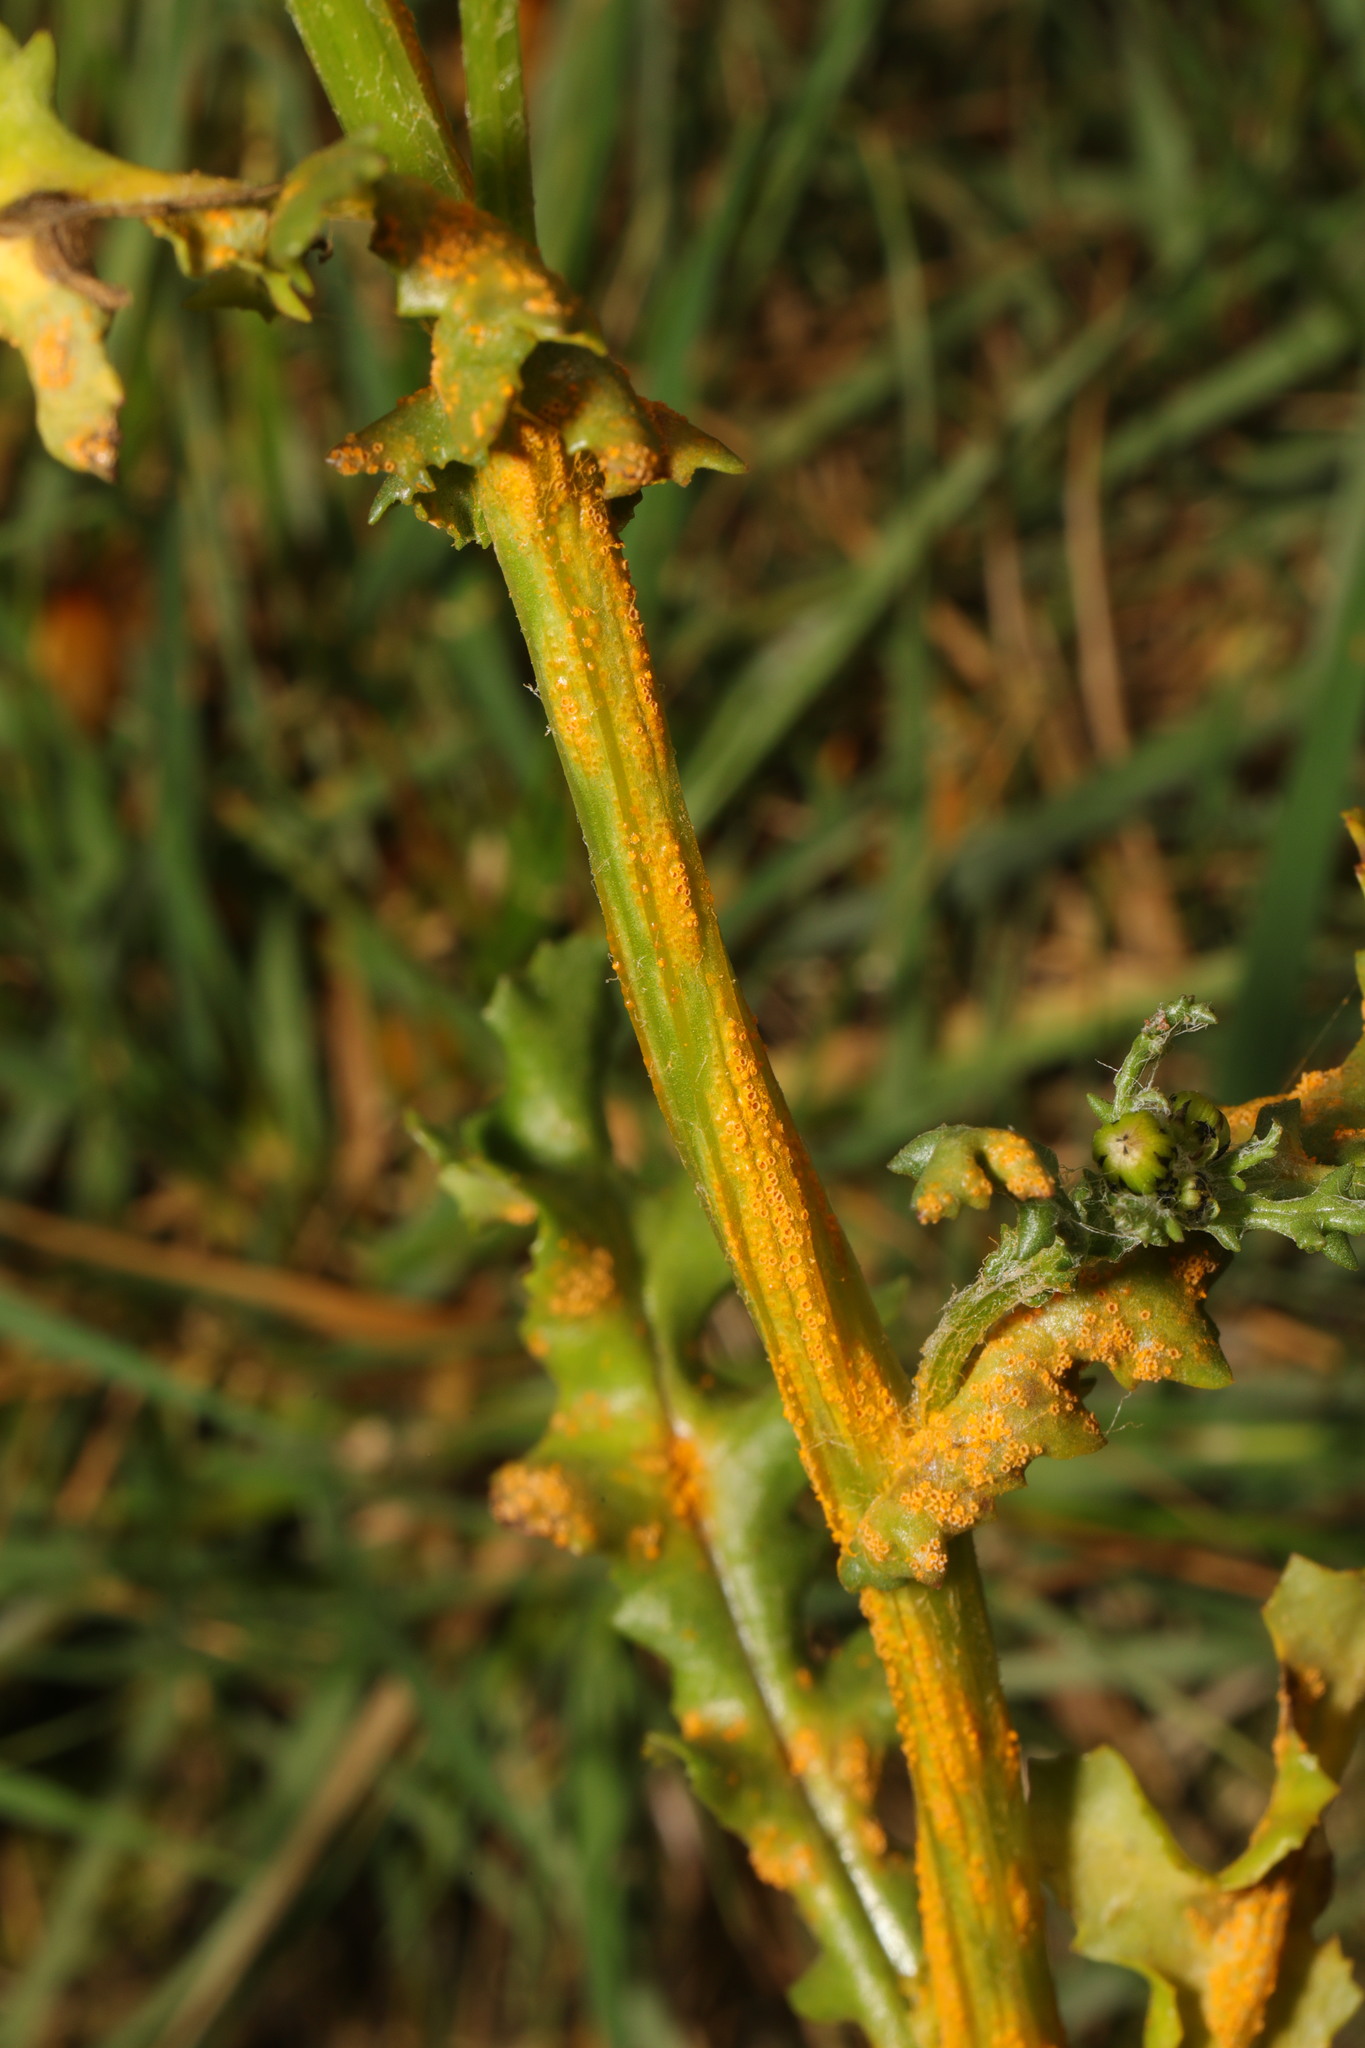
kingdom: Fungi
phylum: Basidiomycota
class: Pucciniomycetes
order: Pucciniales
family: Pucciniaceae
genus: Puccinia
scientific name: Puccinia lagenophorae
